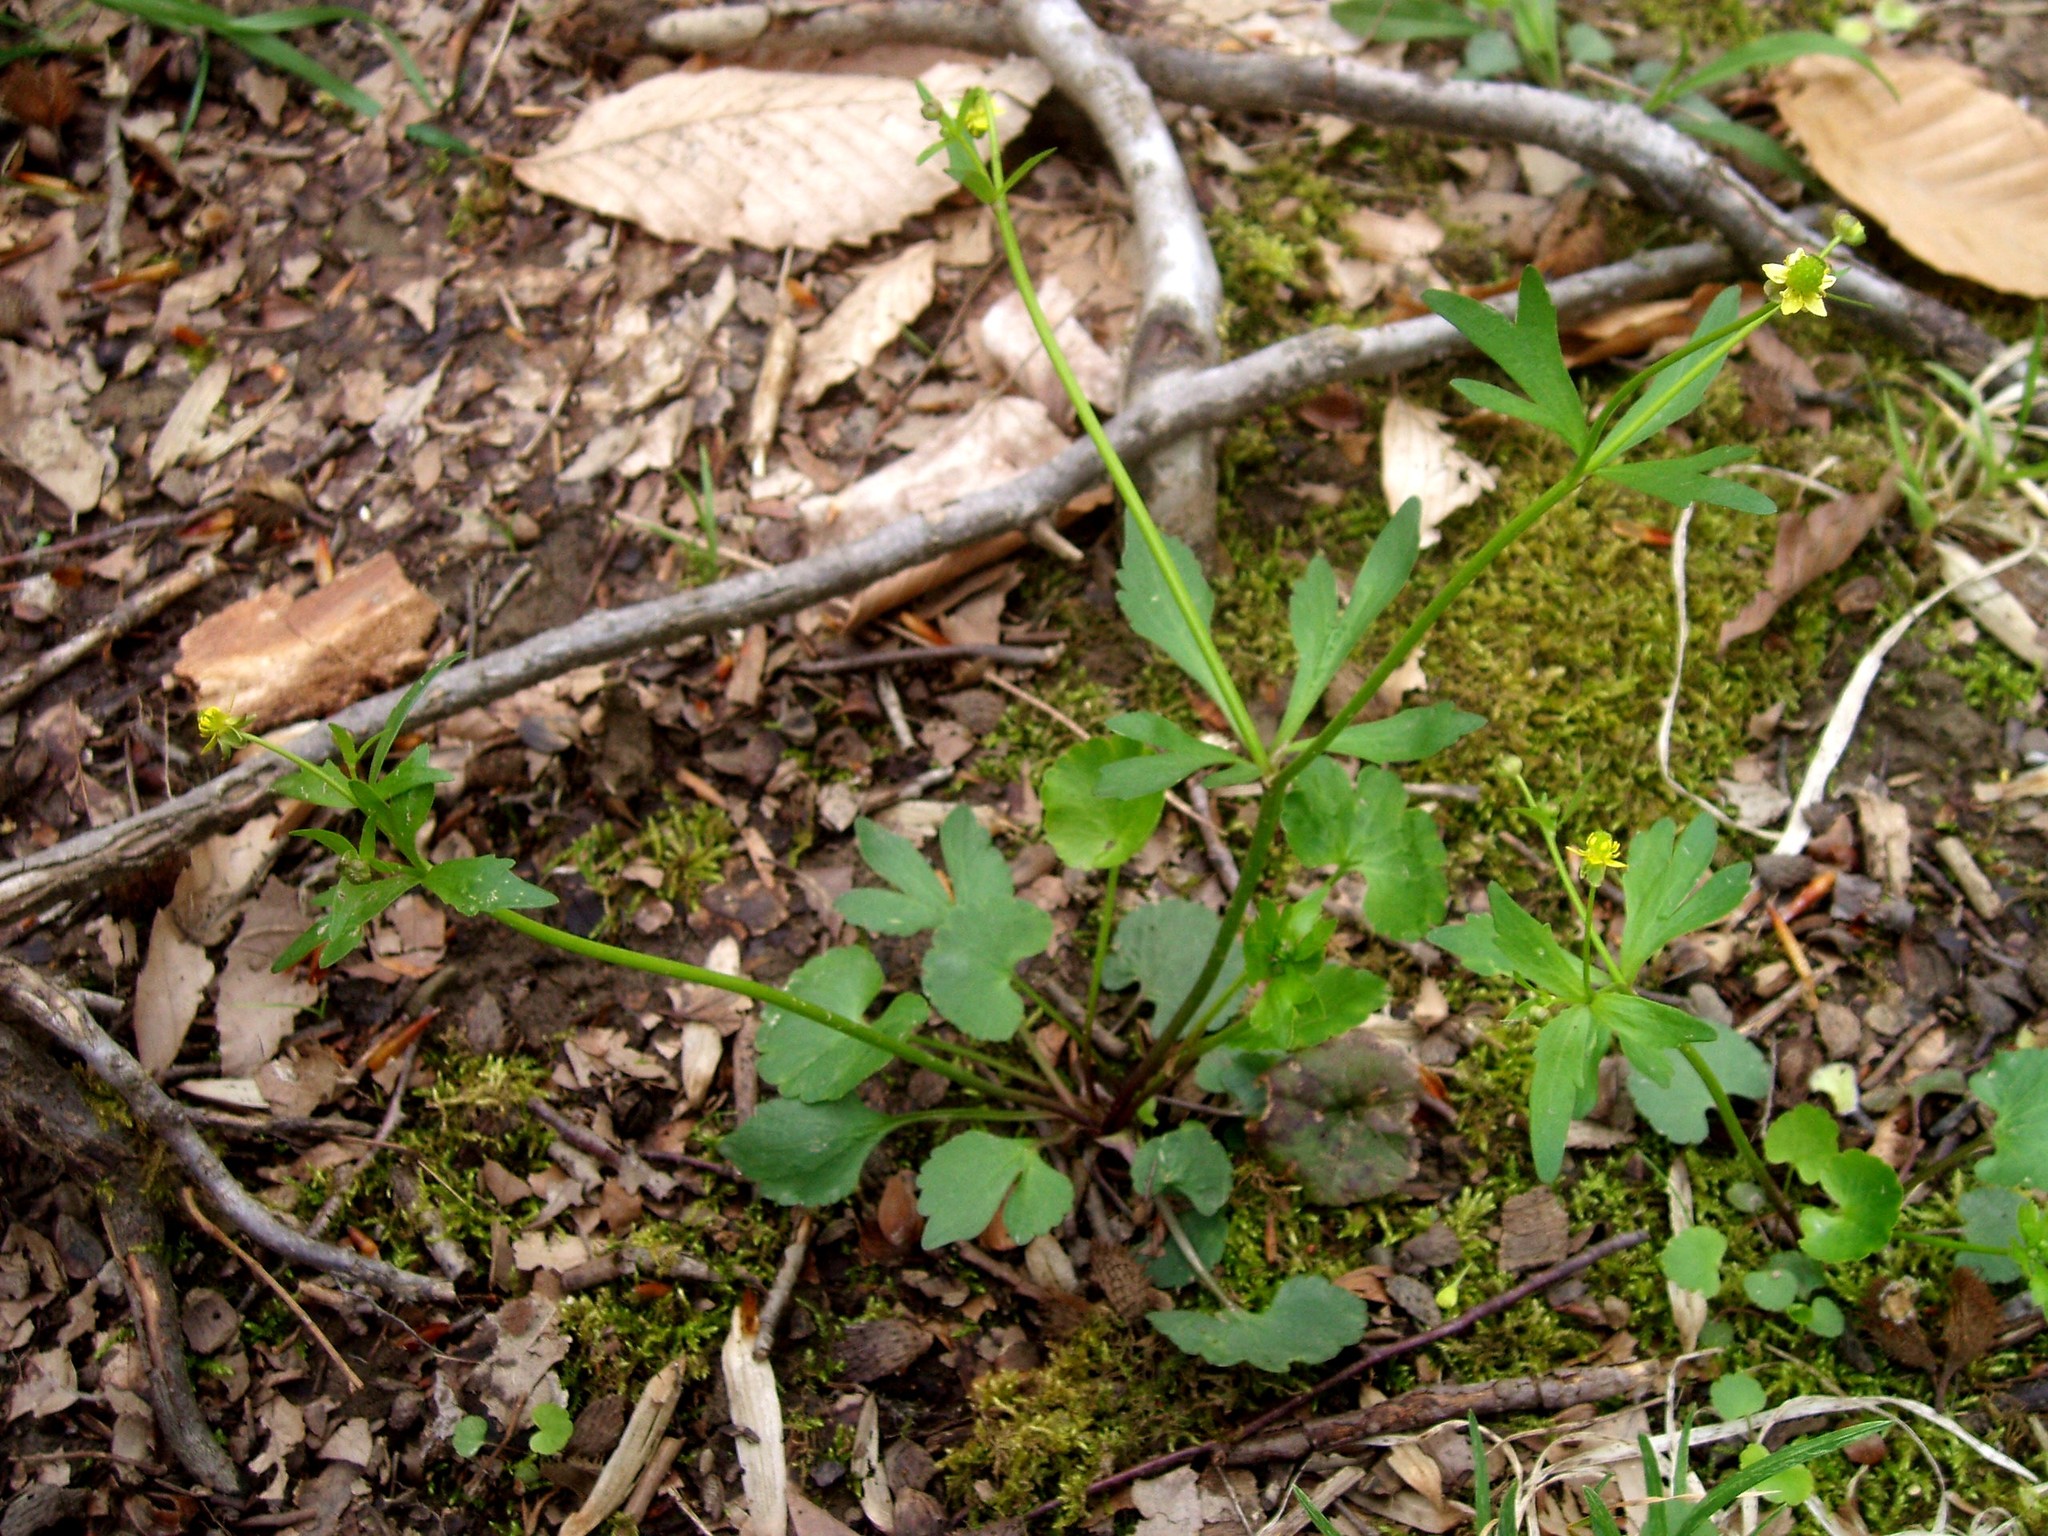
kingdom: Plantae
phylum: Tracheophyta
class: Magnoliopsida
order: Ranunculales
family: Ranunculaceae
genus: Ranunculus
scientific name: Ranunculus abortivus
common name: Early wood buttercup
